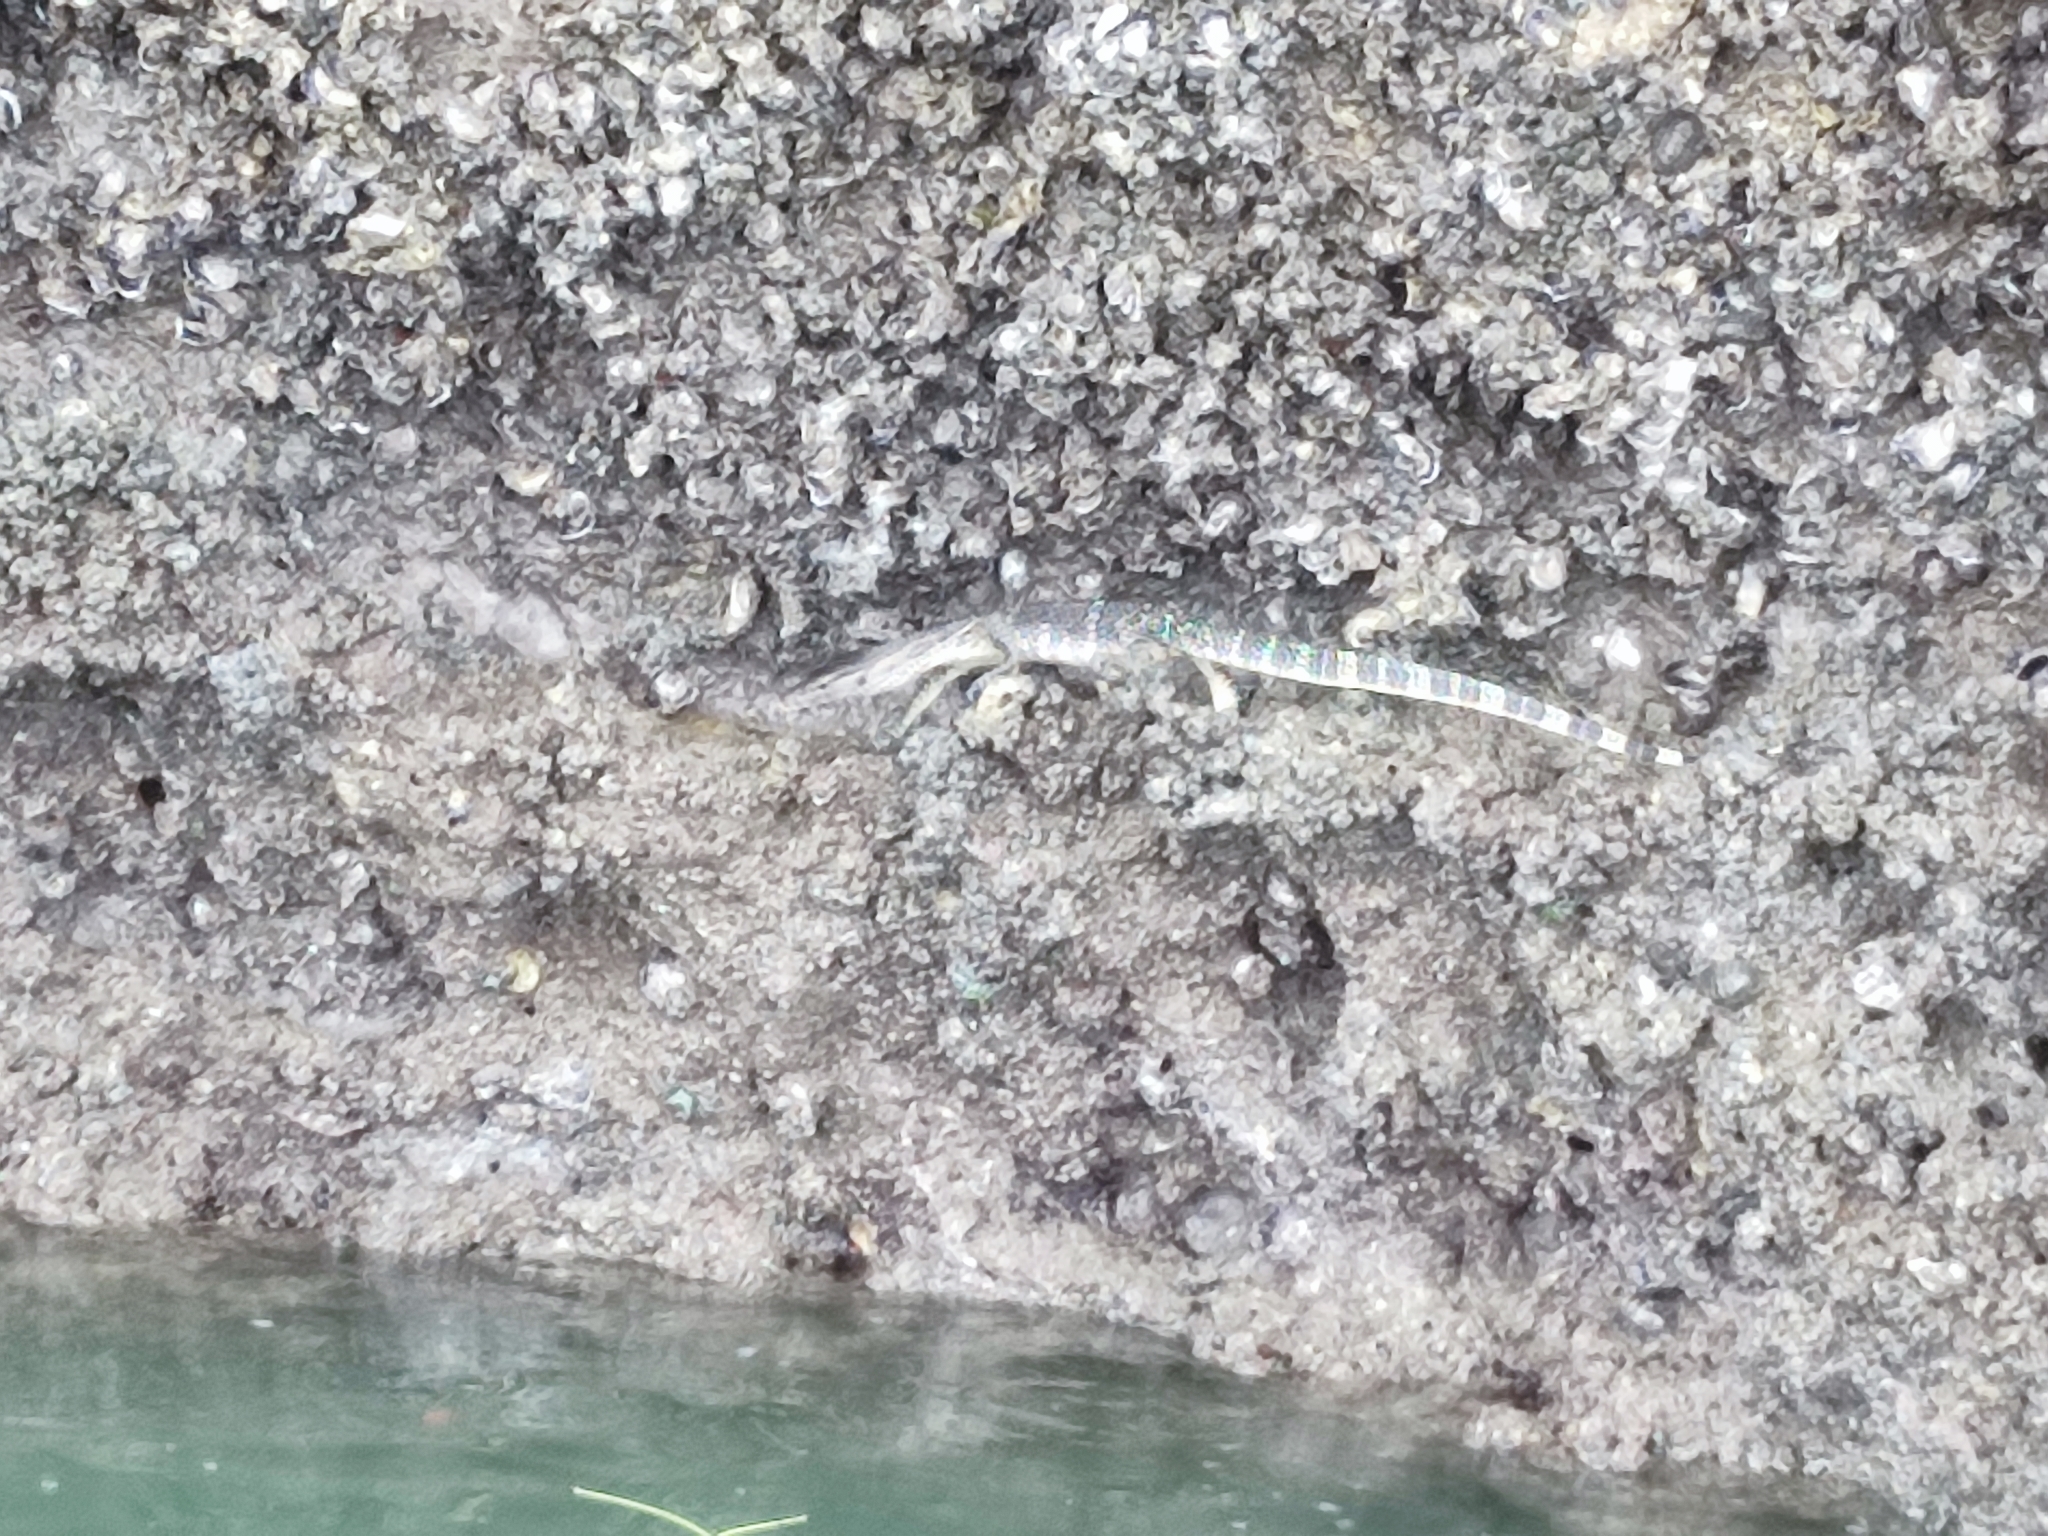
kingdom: Animalia
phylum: Chordata
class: Squamata
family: Varanidae
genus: Varanus
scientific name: Varanus salvator
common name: Common water monitor
